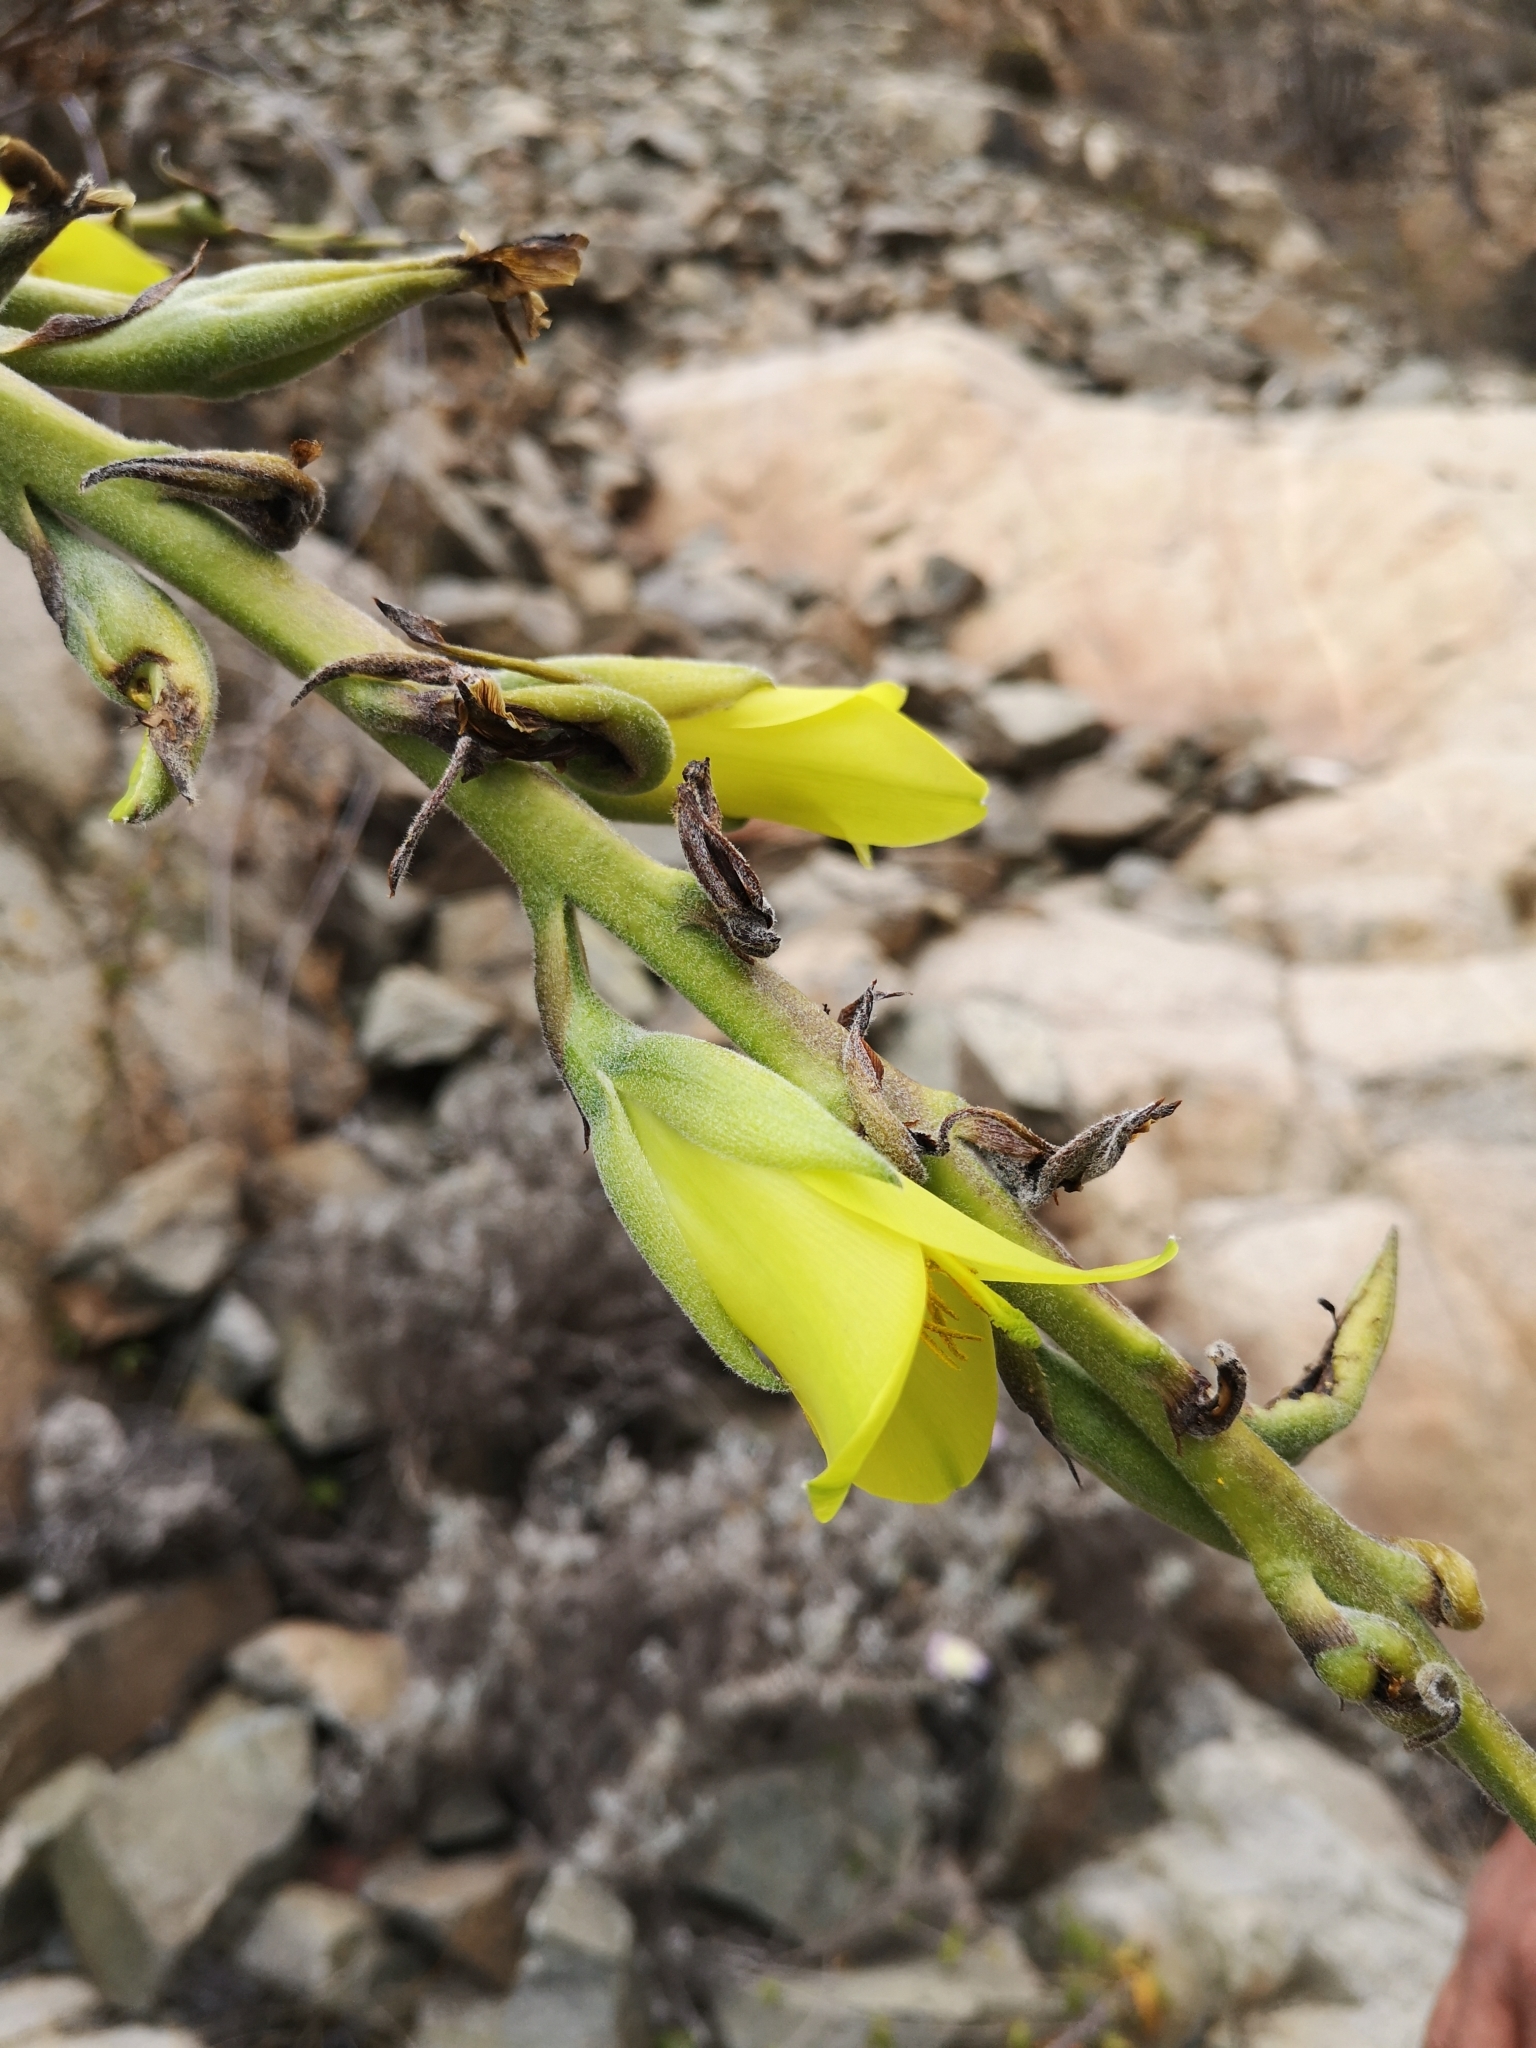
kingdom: Plantae
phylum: Tracheophyta
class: Liliopsida
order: Poales
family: Bromeliaceae
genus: Puya
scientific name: Puya boliviensis
